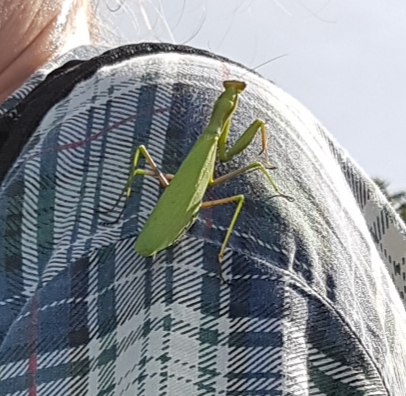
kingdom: Animalia
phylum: Arthropoda
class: Insecta
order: Mantodea
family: Mantidae
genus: Mantis
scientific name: Mantis religiosa
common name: Praying mantis
